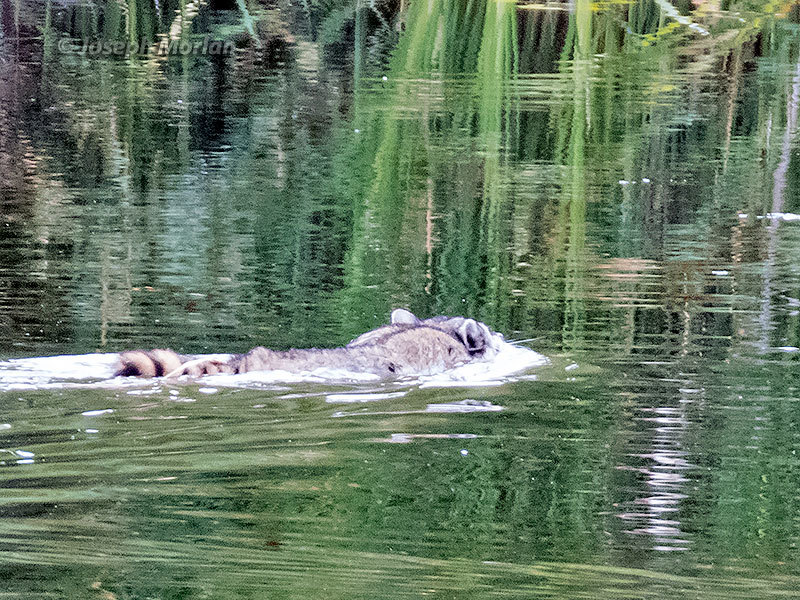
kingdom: Animalia
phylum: Chordata
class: Mammalia
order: Carnivora
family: Procyonidae
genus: Procyon
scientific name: Procyon lotor
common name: Raccoon
